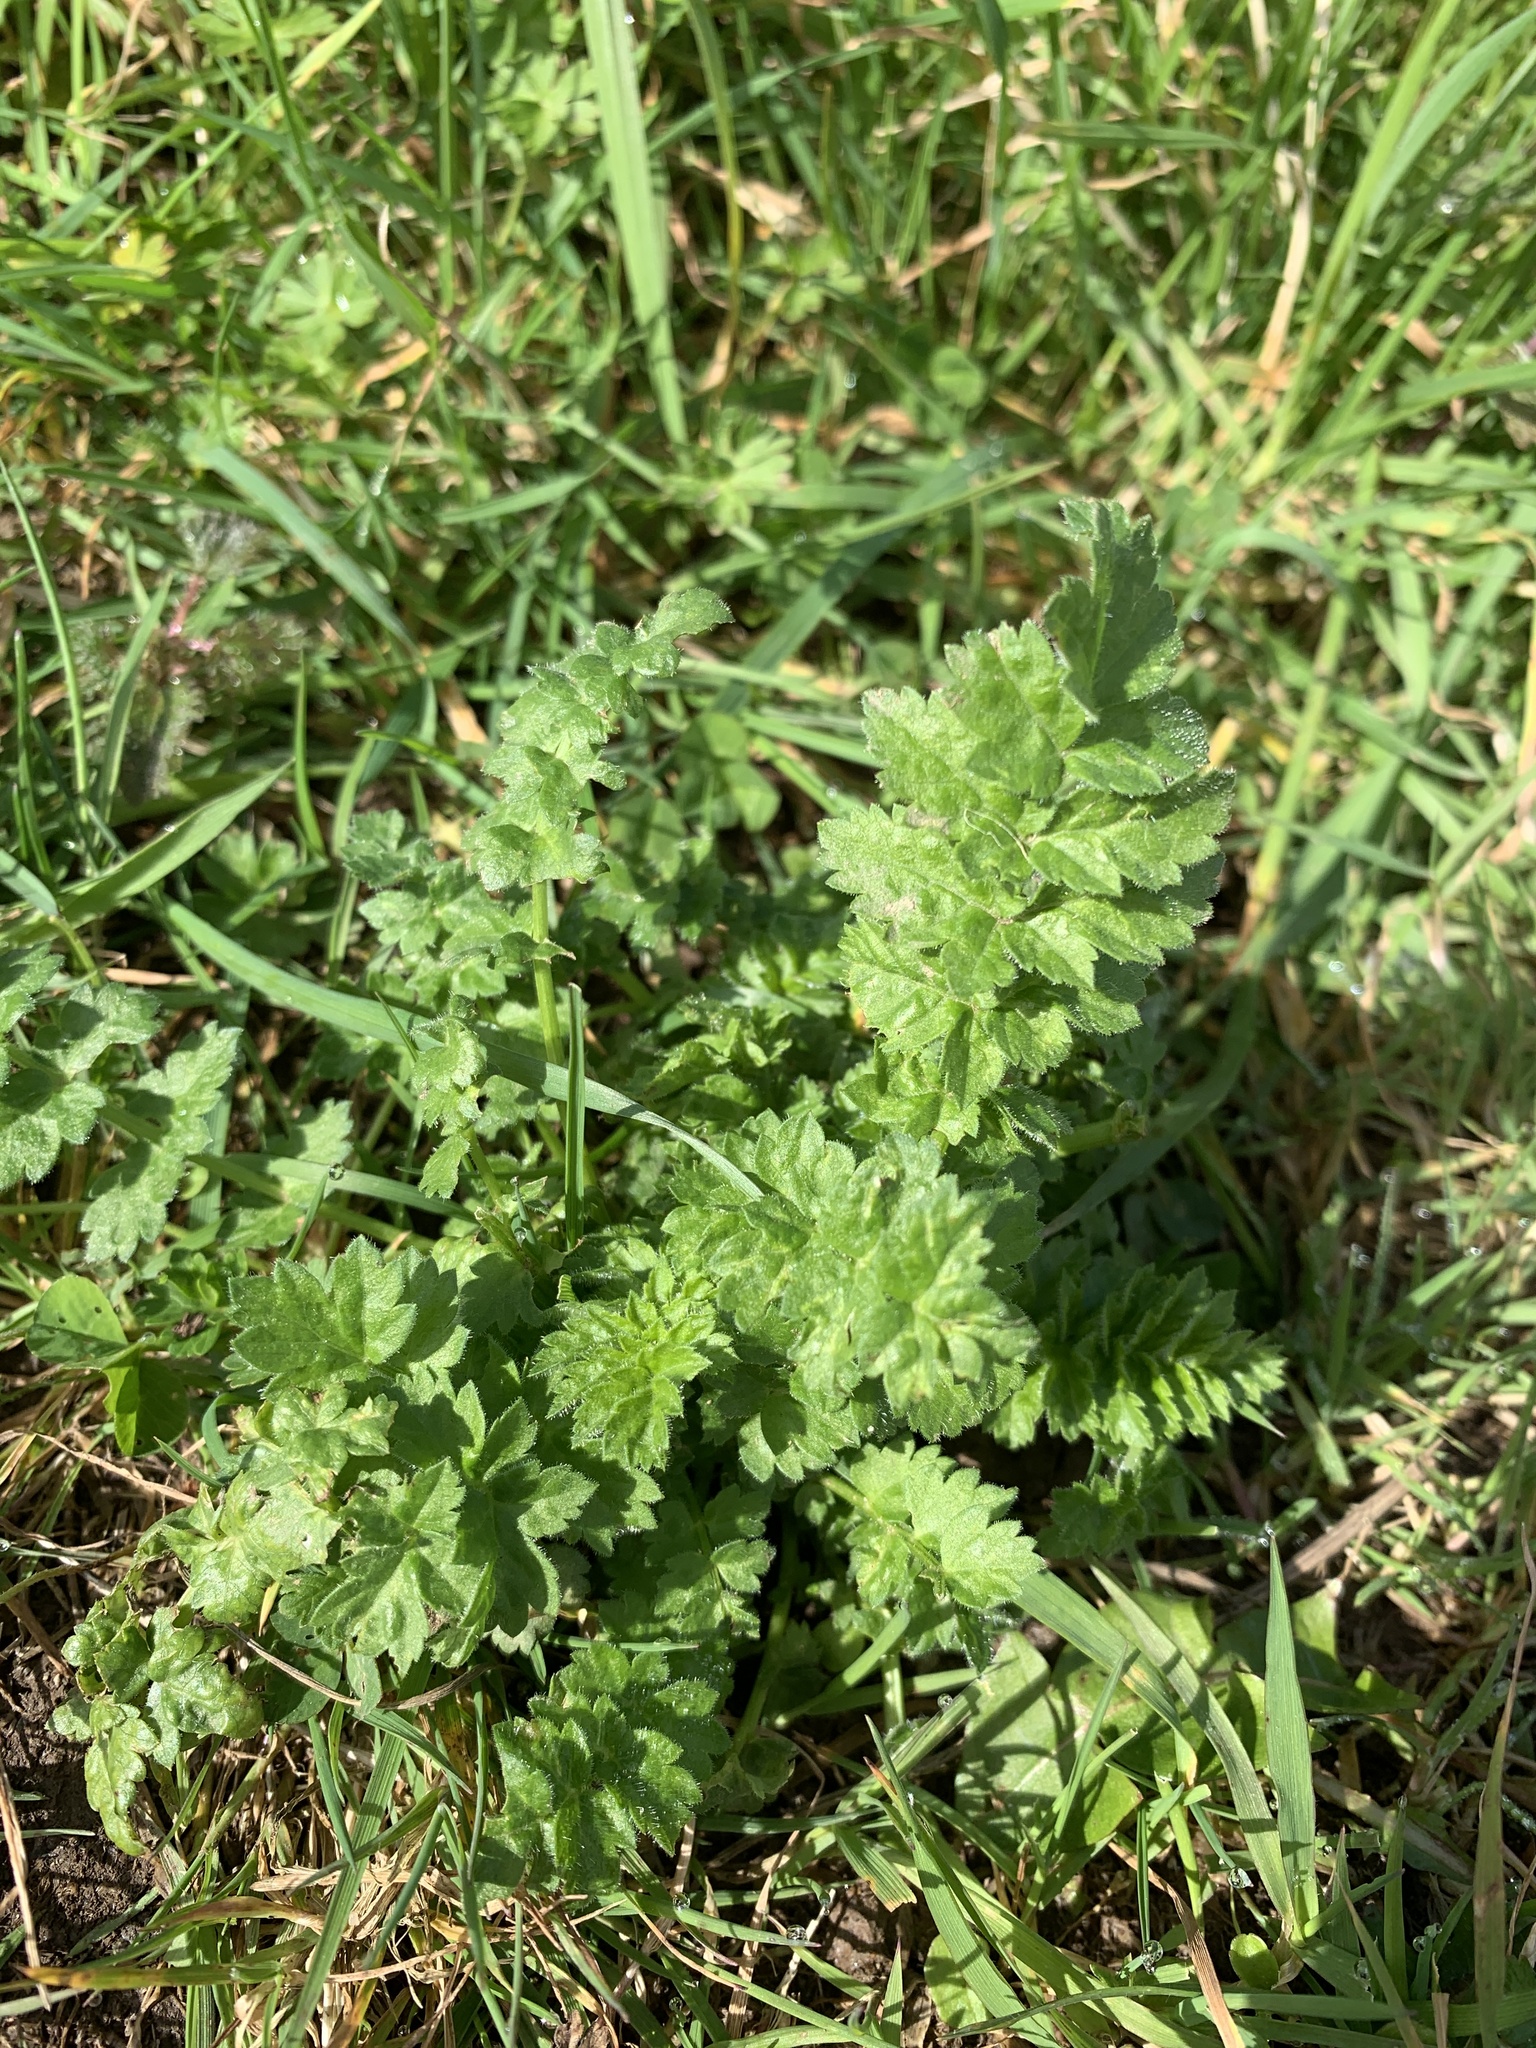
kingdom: Plantae
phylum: Tracheophyta
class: Magnoliopsida
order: Asterales
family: Asteraceae
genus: Jacobaea
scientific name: Jacobaea vulgaris
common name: Stinking willie
